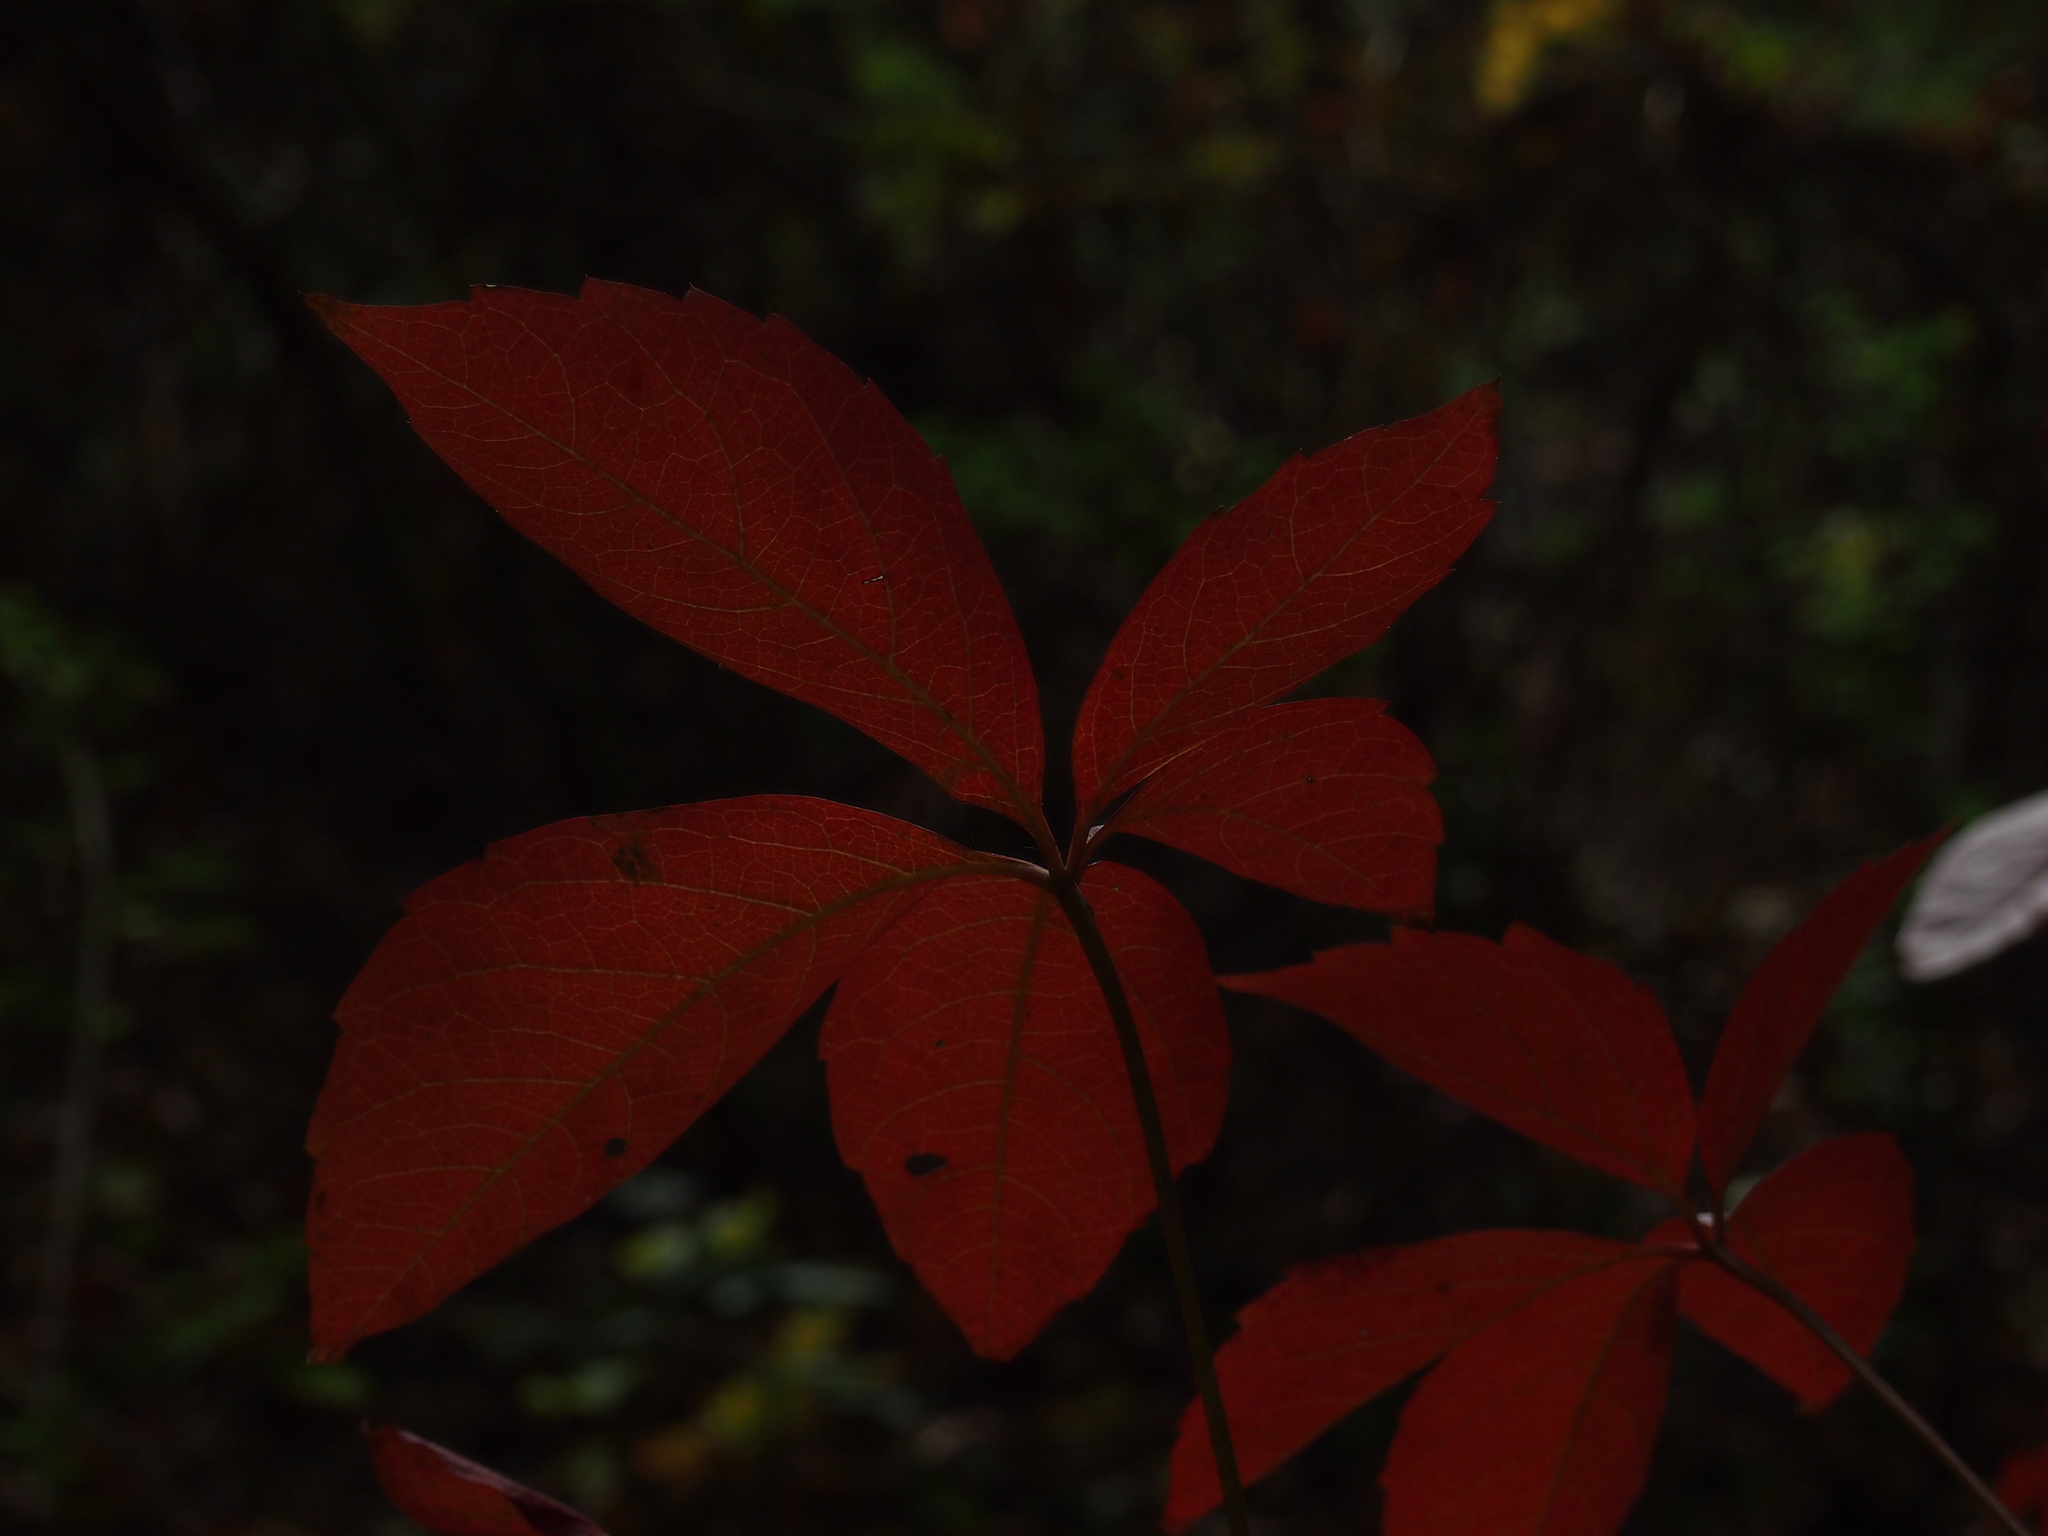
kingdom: Plantae
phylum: Tracheophyta
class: Magnoliopsida
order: Vitales
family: Vitaceae
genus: Parthenocissus
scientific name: Parthenocissus quinquefolia
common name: Virginia-creeper
